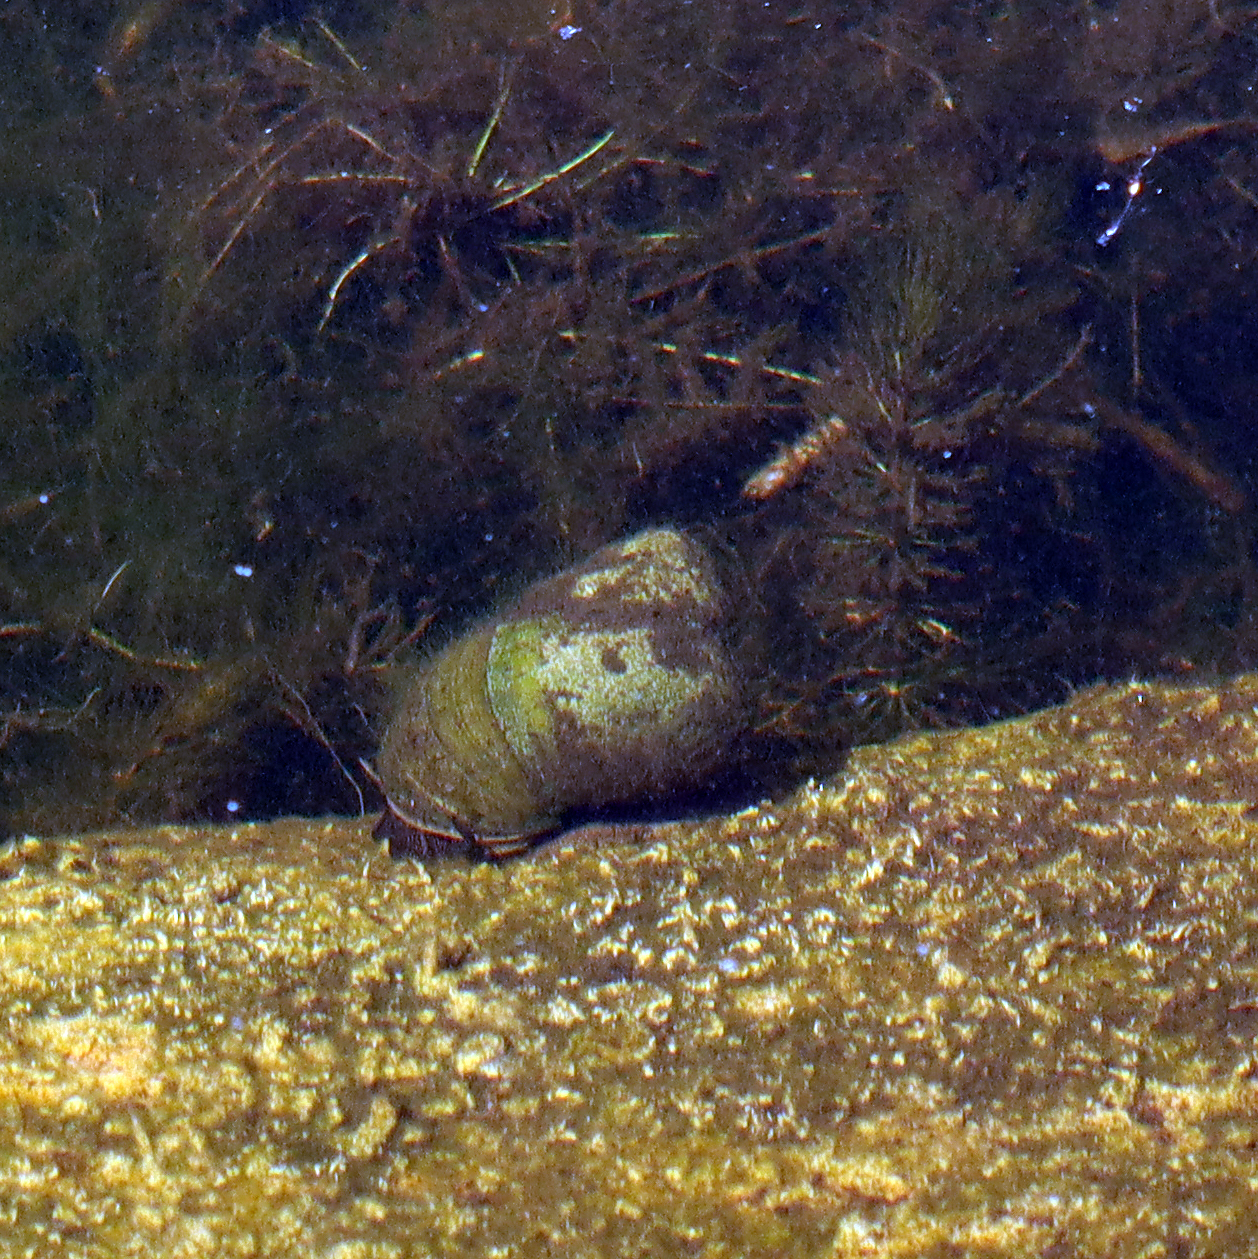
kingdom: Animalia
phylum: Mollusca
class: Gastropoda
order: Architaenioglossa
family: Viviparidae
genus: Cipangopaludina
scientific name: Cipangopaludina chinensis
